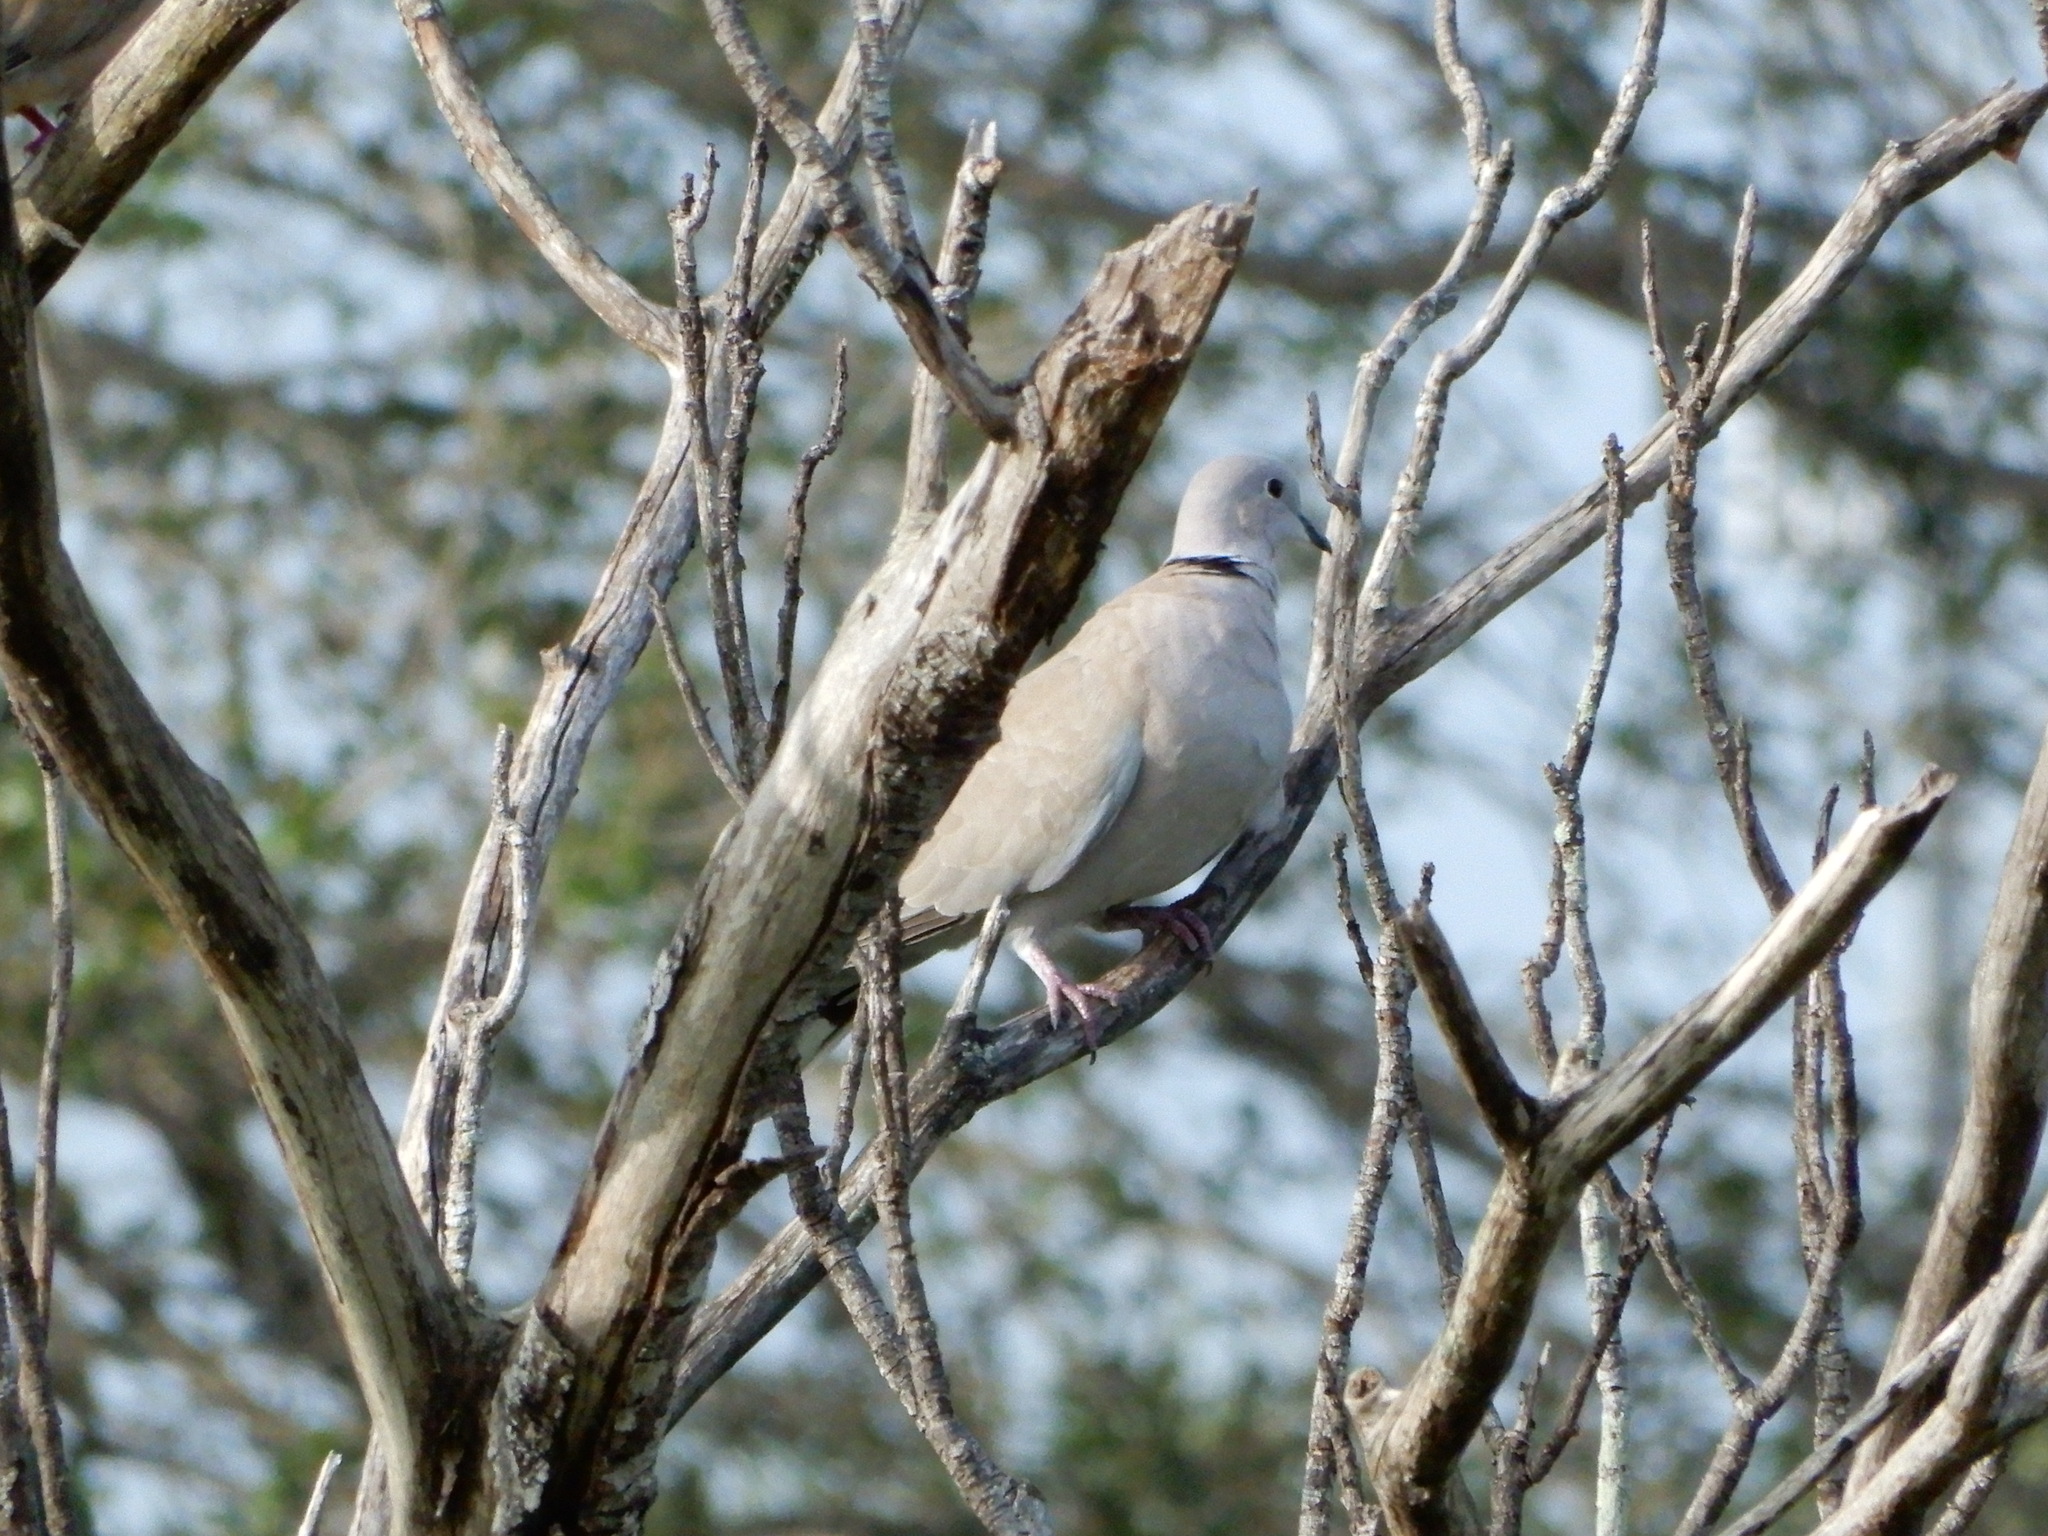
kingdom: Animalia
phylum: Chordata
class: Aves
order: Columbiformes
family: Columbidae
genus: Streptopelia
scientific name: Streptopelia decaocto
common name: Eurasian collared dove
